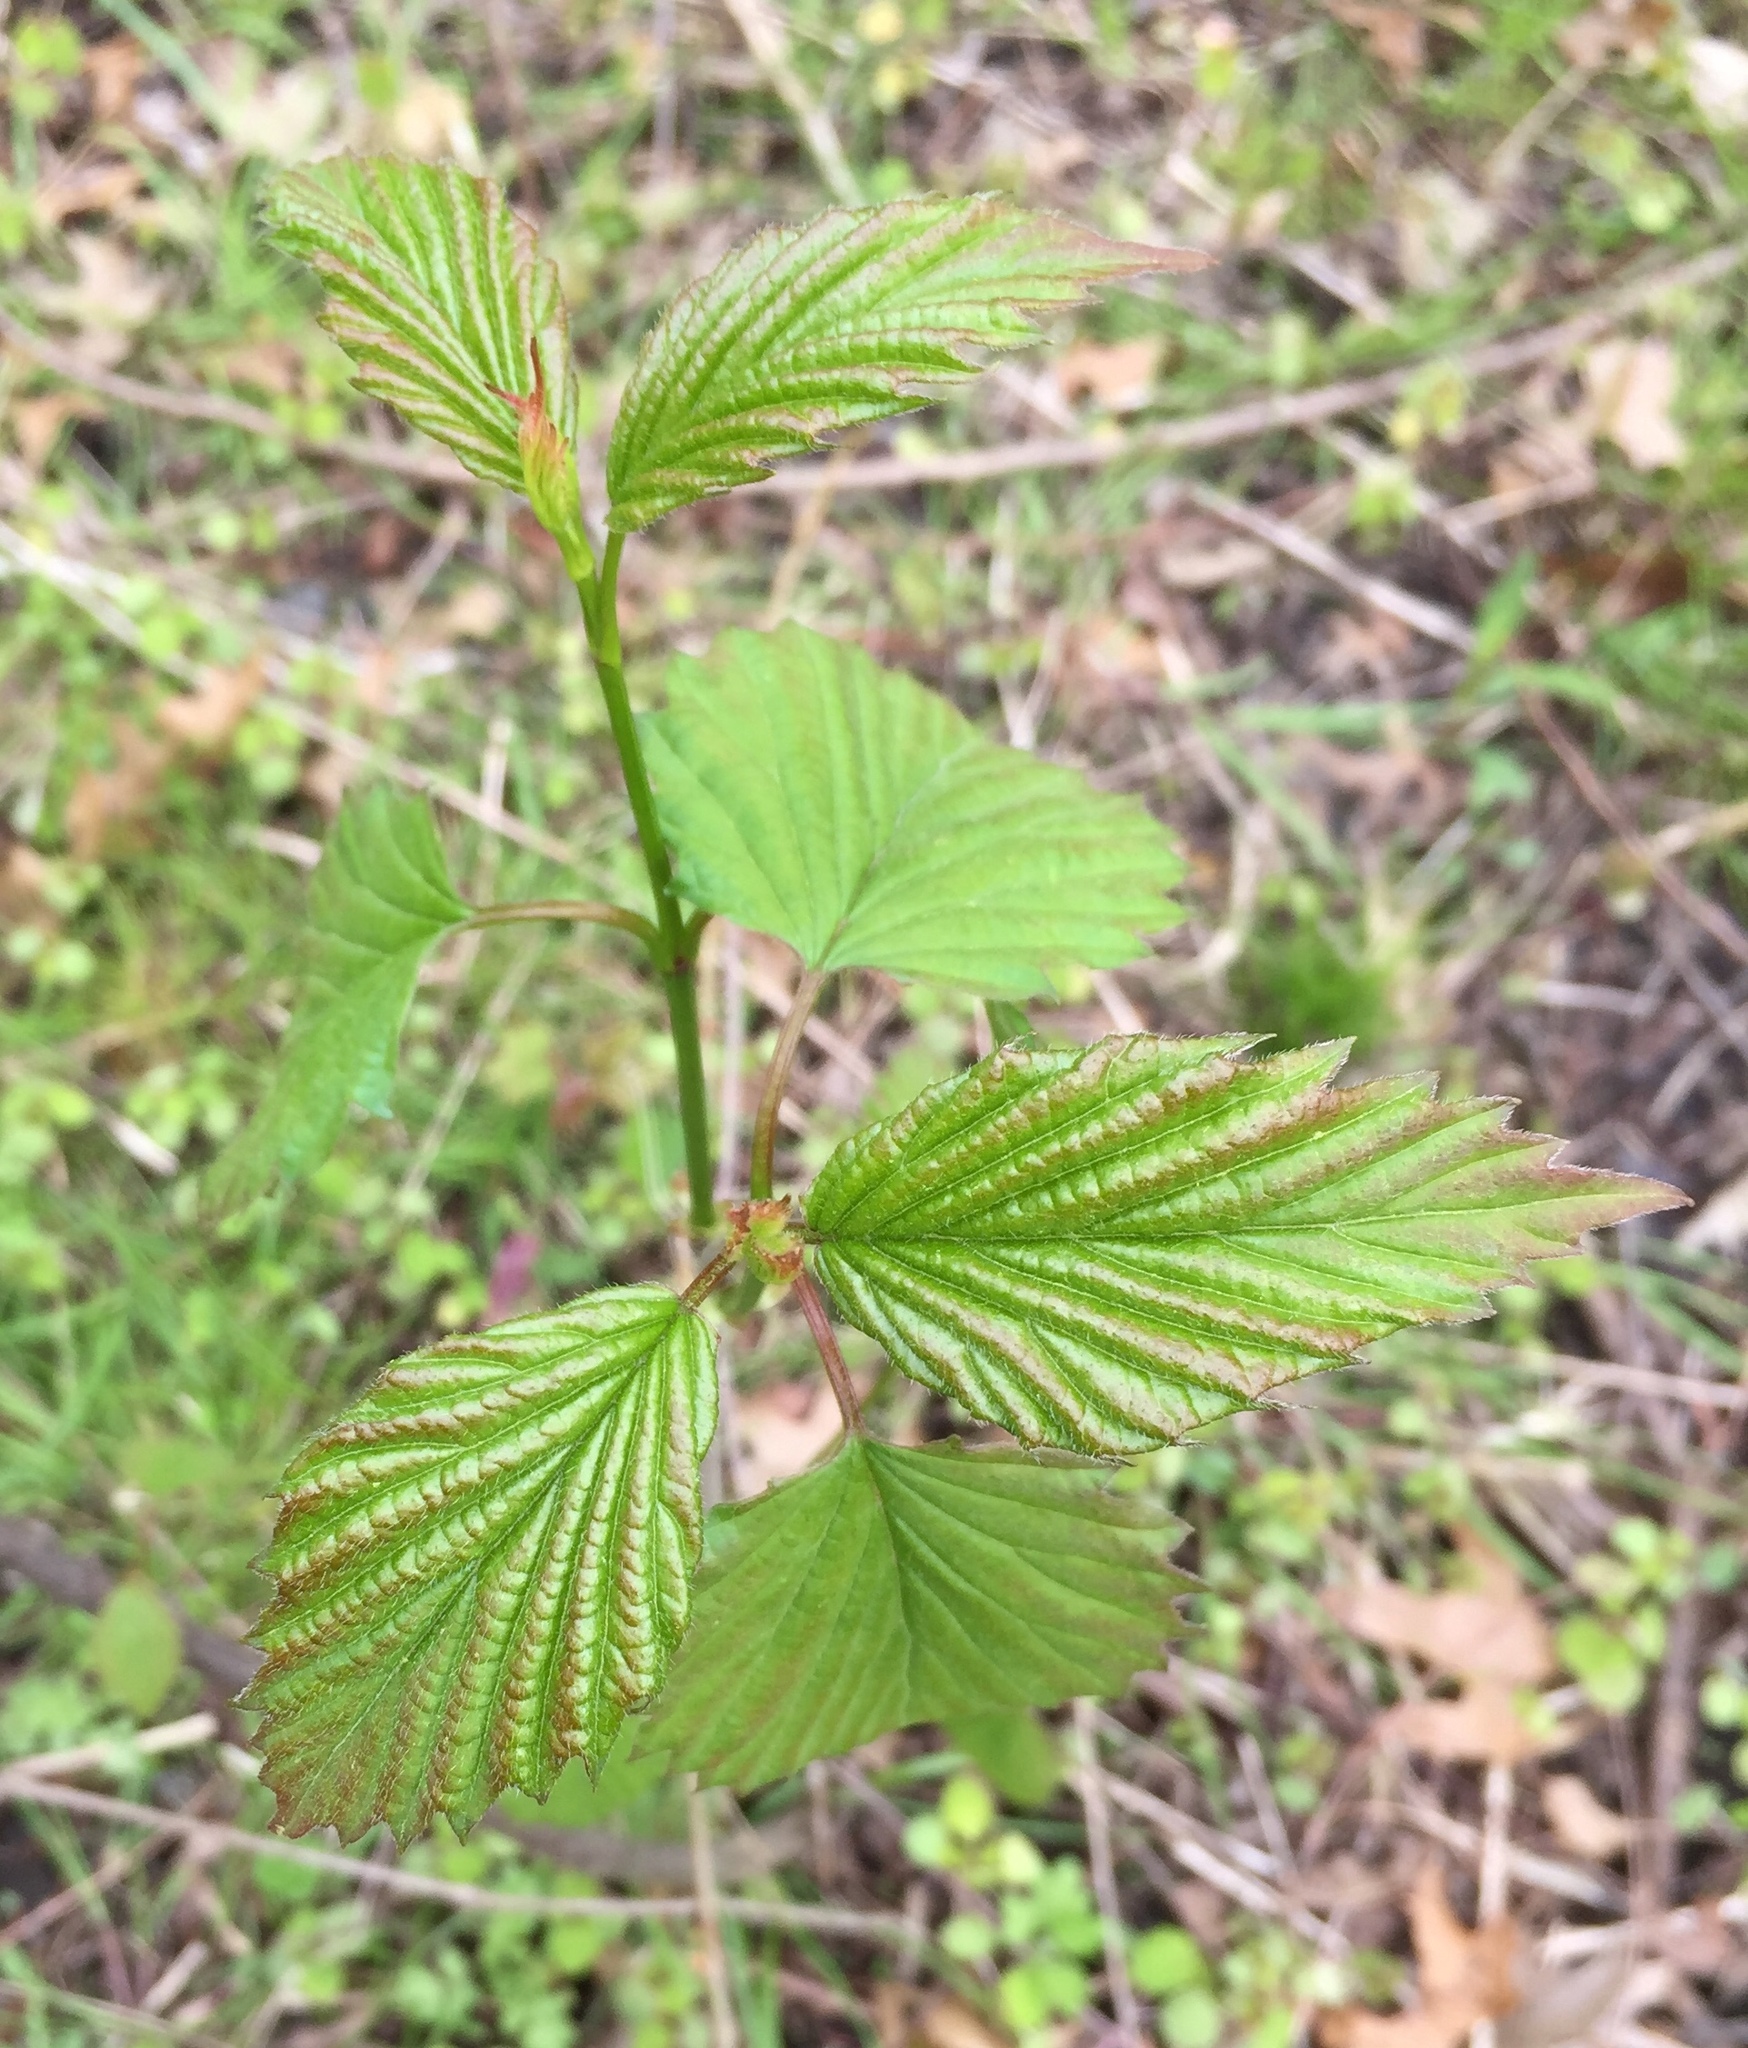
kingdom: Plantae
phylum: Tracheophyta
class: Magnoliopsida
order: Dipsacales
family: Viburnaceae
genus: Viburnum
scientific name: Viburnum dentatum
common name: Arrow-wood
